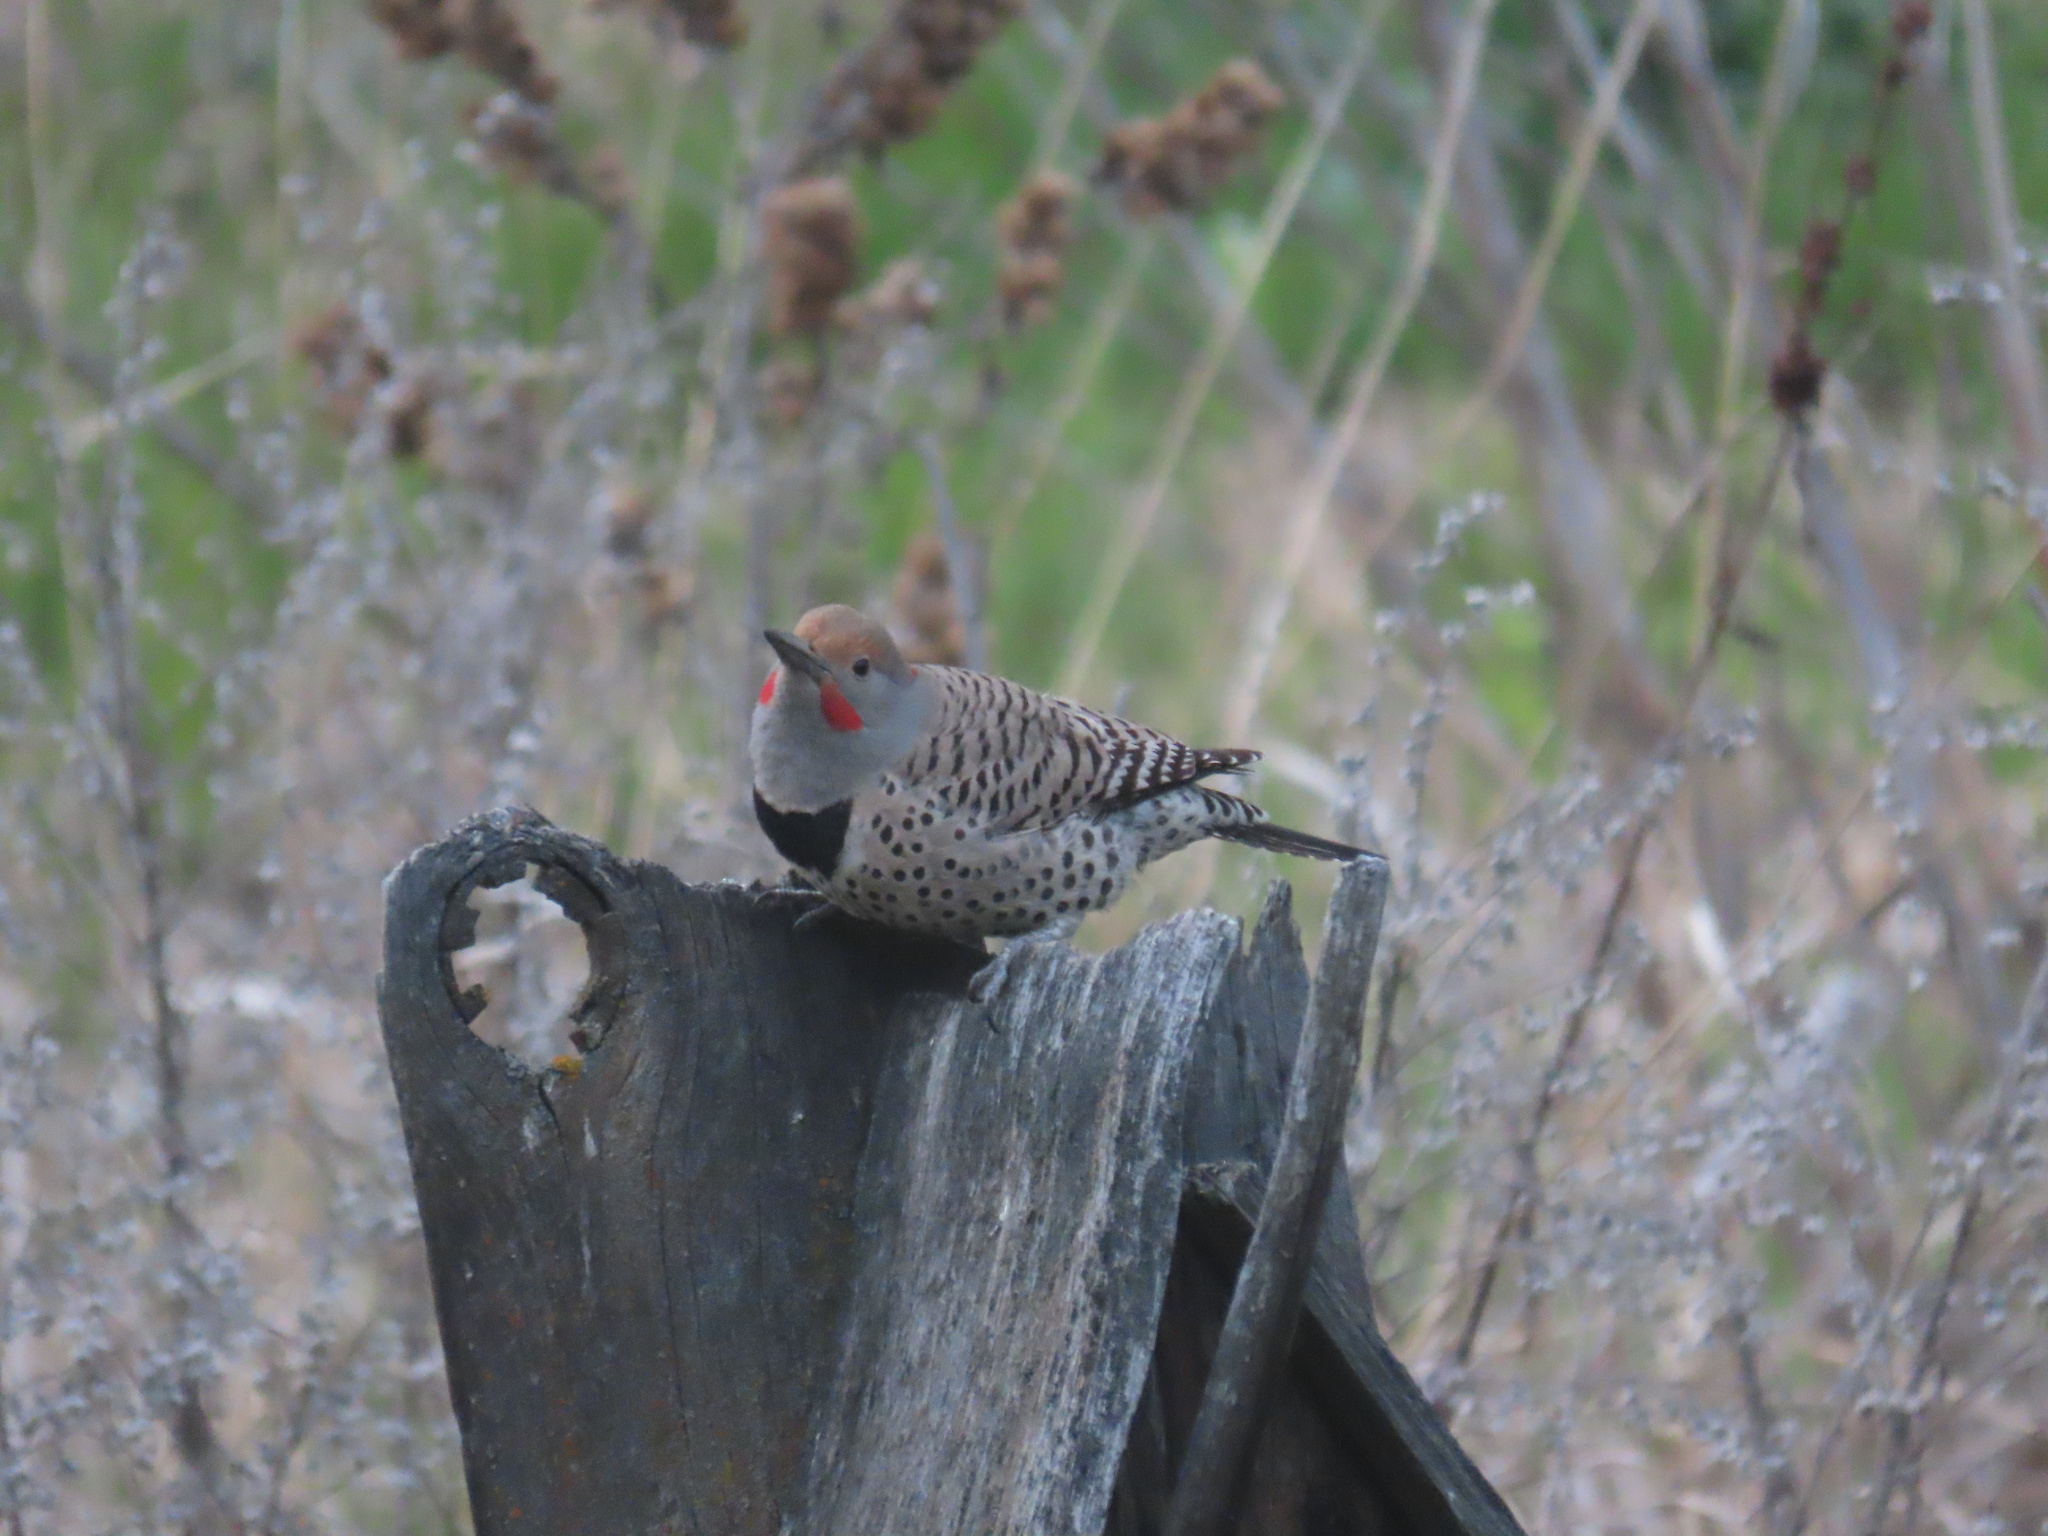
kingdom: Animalia
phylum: Chordata
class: Aves
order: Piciformes
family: Picidae
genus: Colaptes
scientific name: Colaptes auratus
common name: Northern flicker
